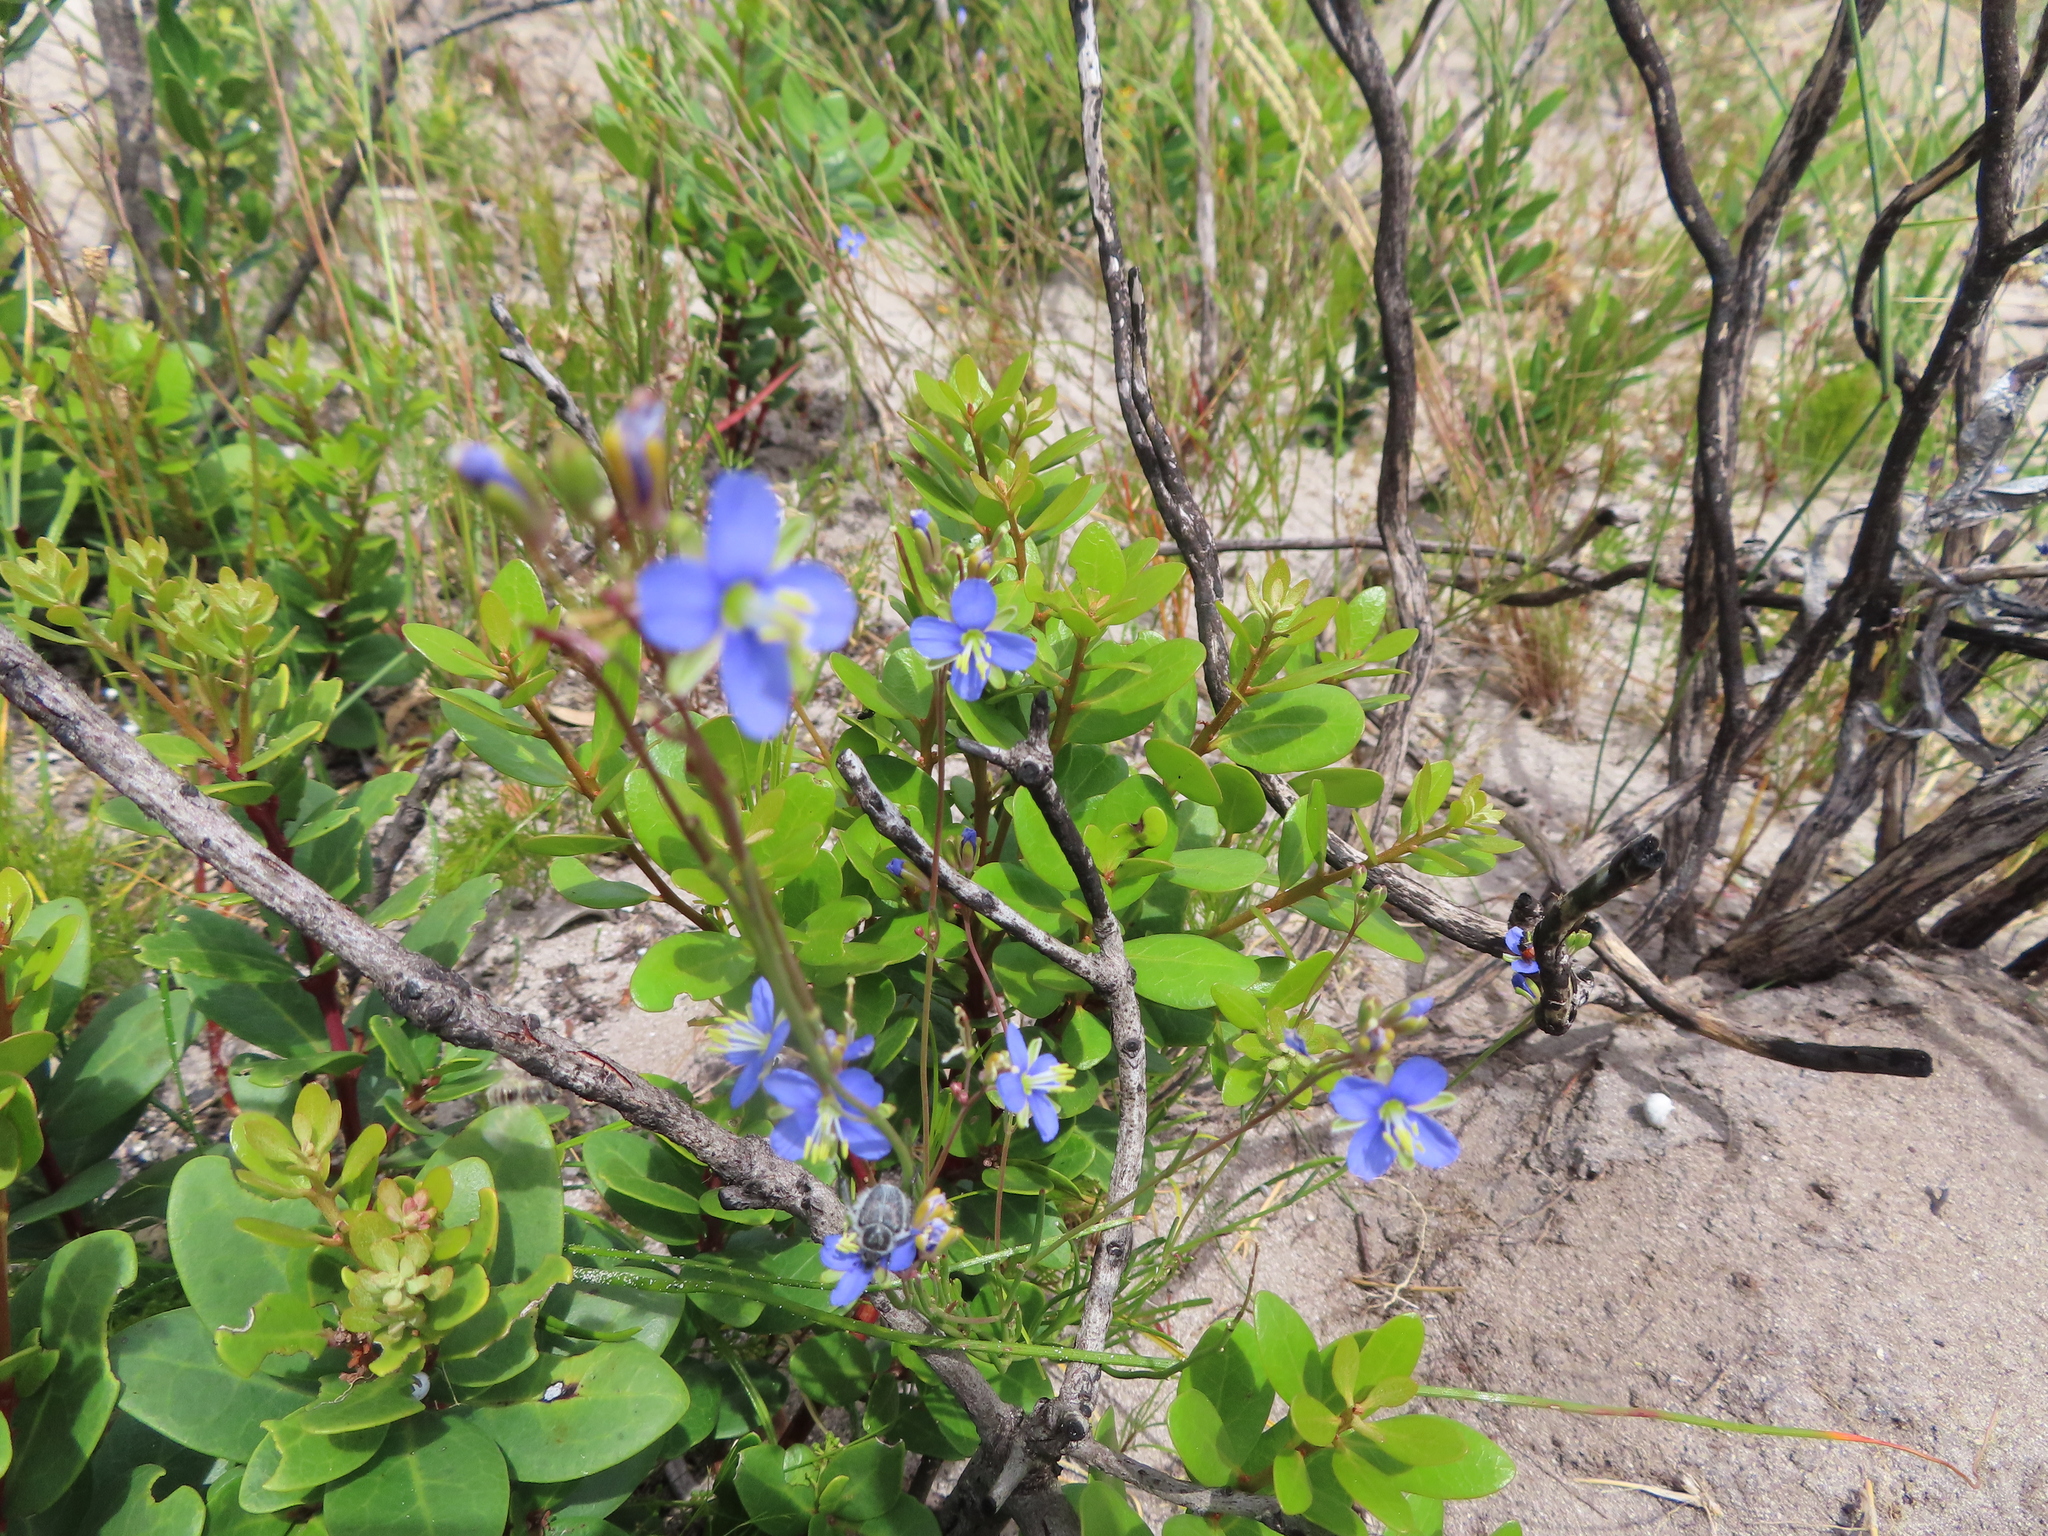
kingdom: Plantae
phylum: Tracheophyta
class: Magnoliopsida
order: Brassicales
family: Brassicaceae
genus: Heliophila
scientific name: Heliophila linearis
